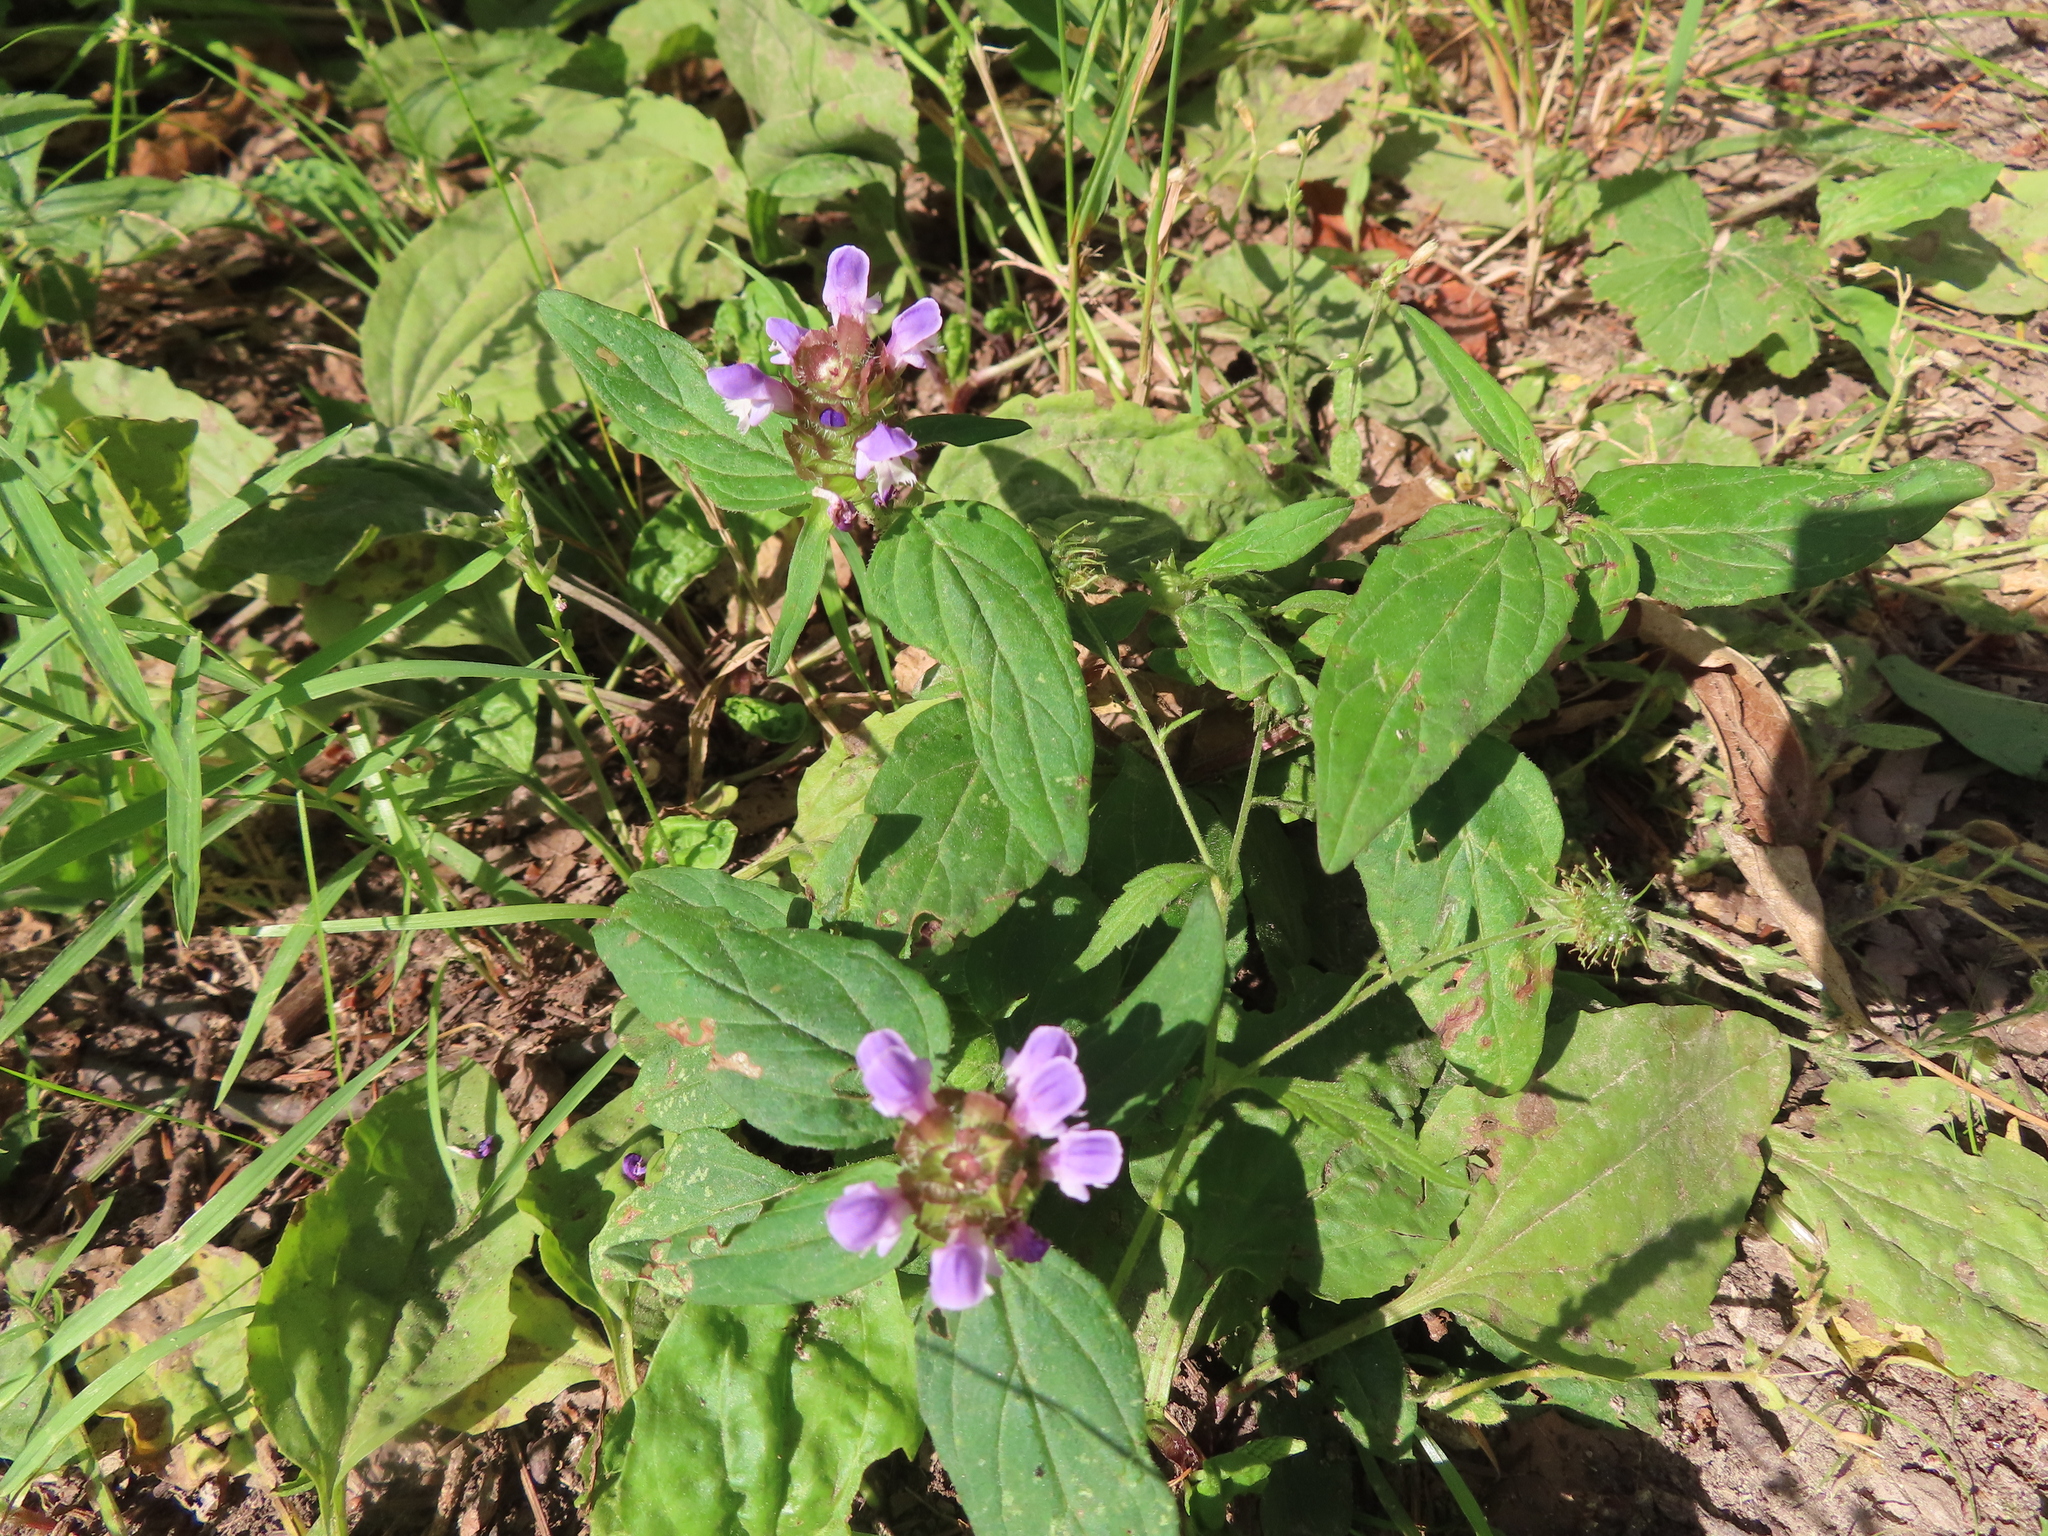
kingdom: Plantae
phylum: Tracheophyta
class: Magnoliopsida
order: Lamiales
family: Lamiaceae
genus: Prunella
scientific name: Prunella vulgaris
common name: Heal-all
